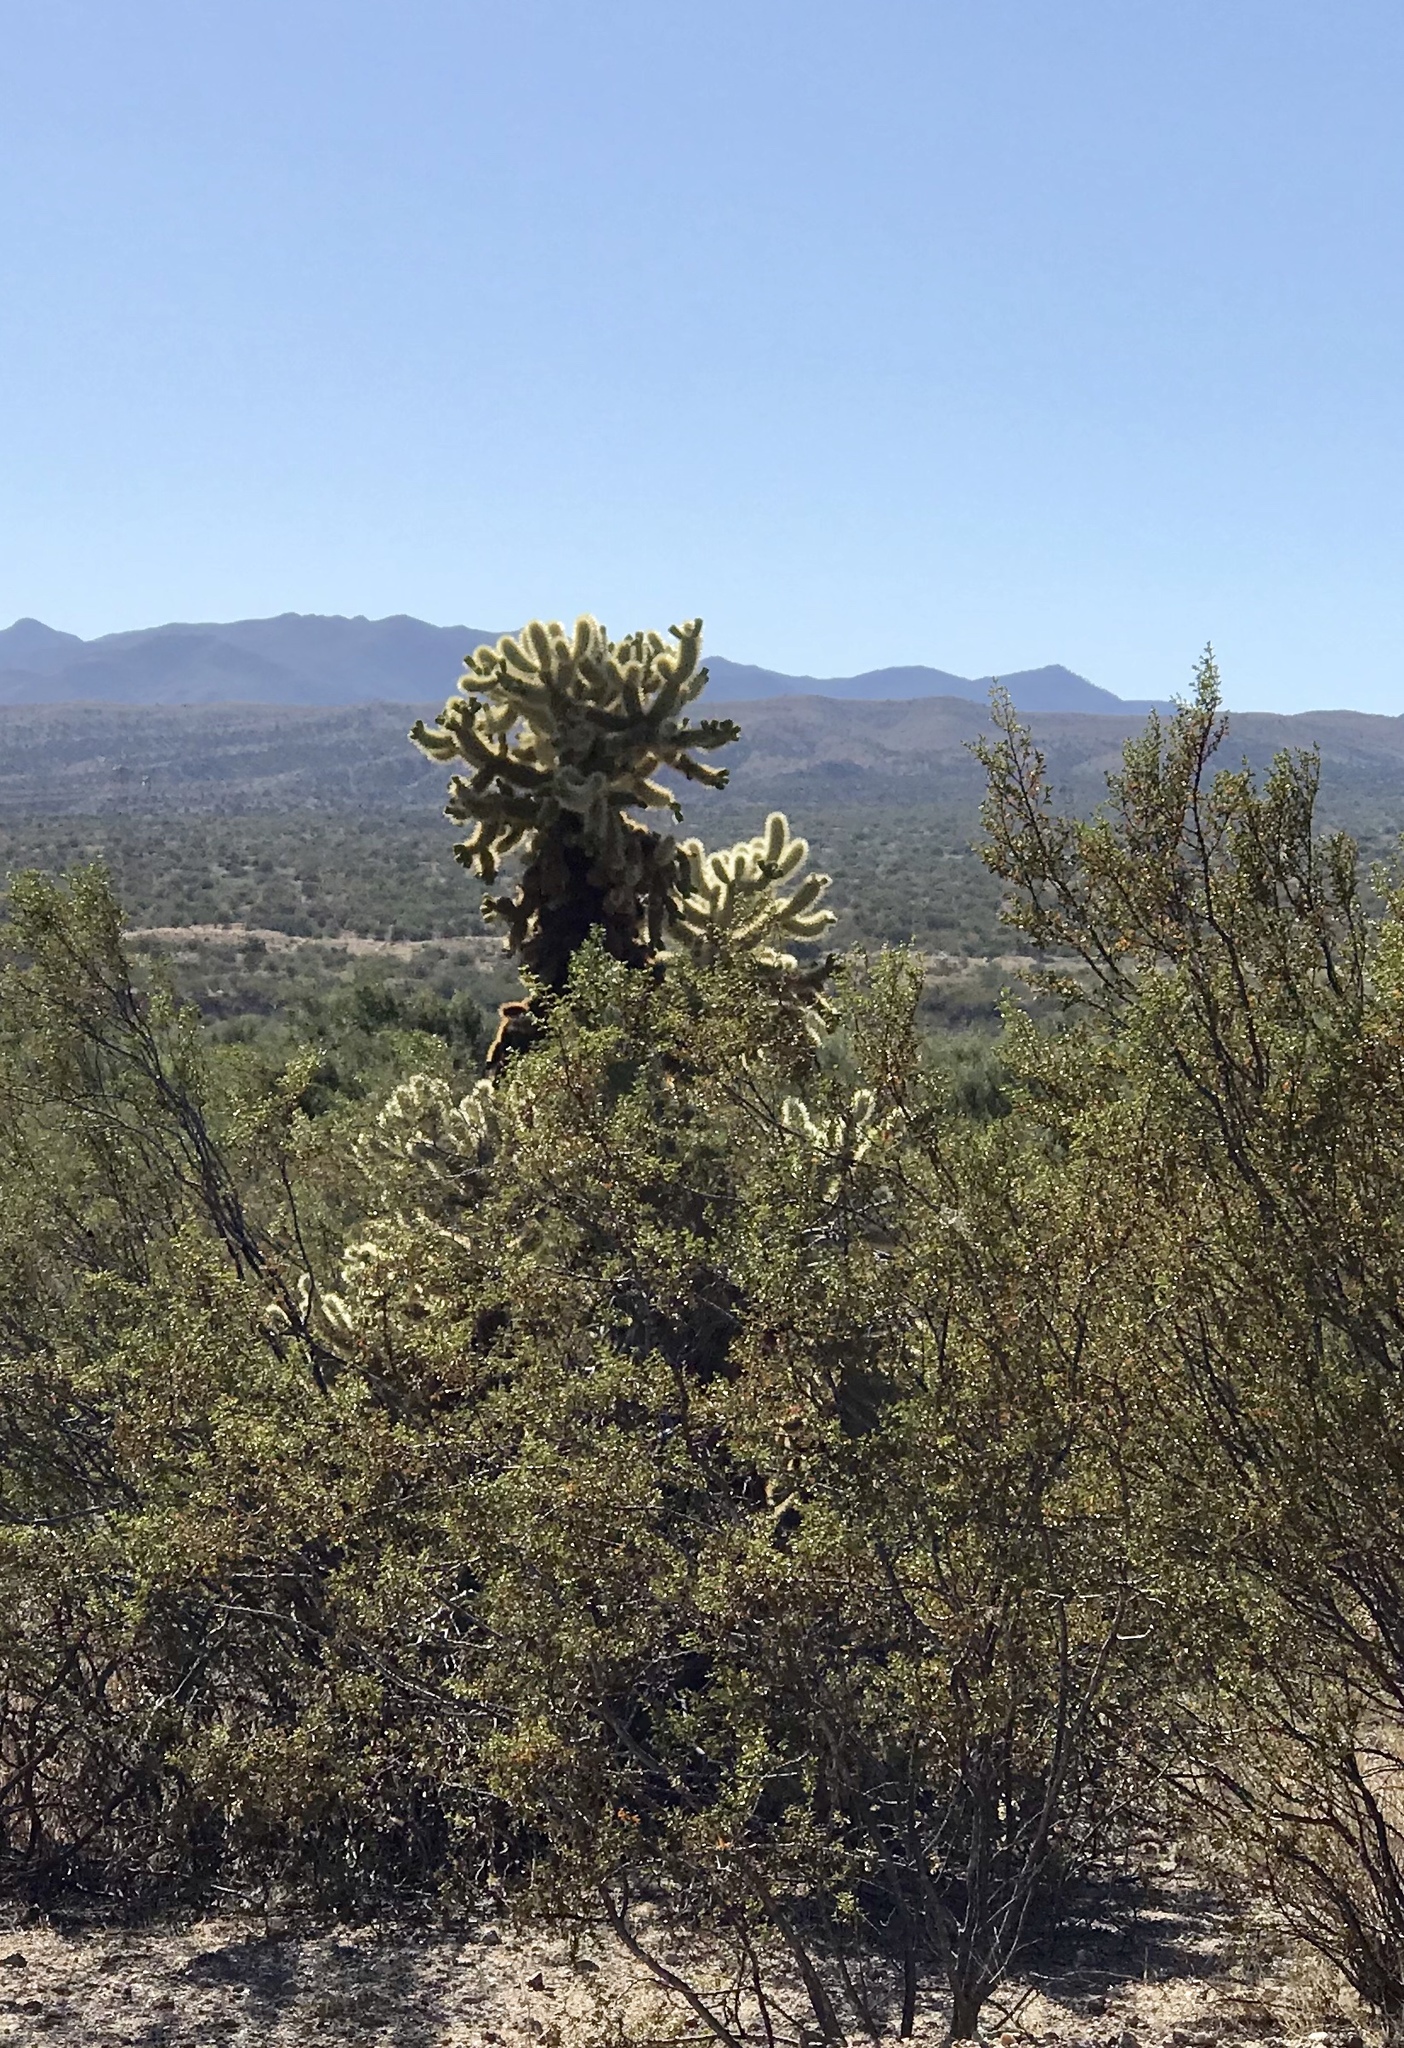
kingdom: Plantae
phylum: Tracheophyta
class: Magnoliopsida
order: Caryophyllales
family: Cactaceae
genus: Cylindropuntia
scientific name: Cylindropuntia fosbergii
